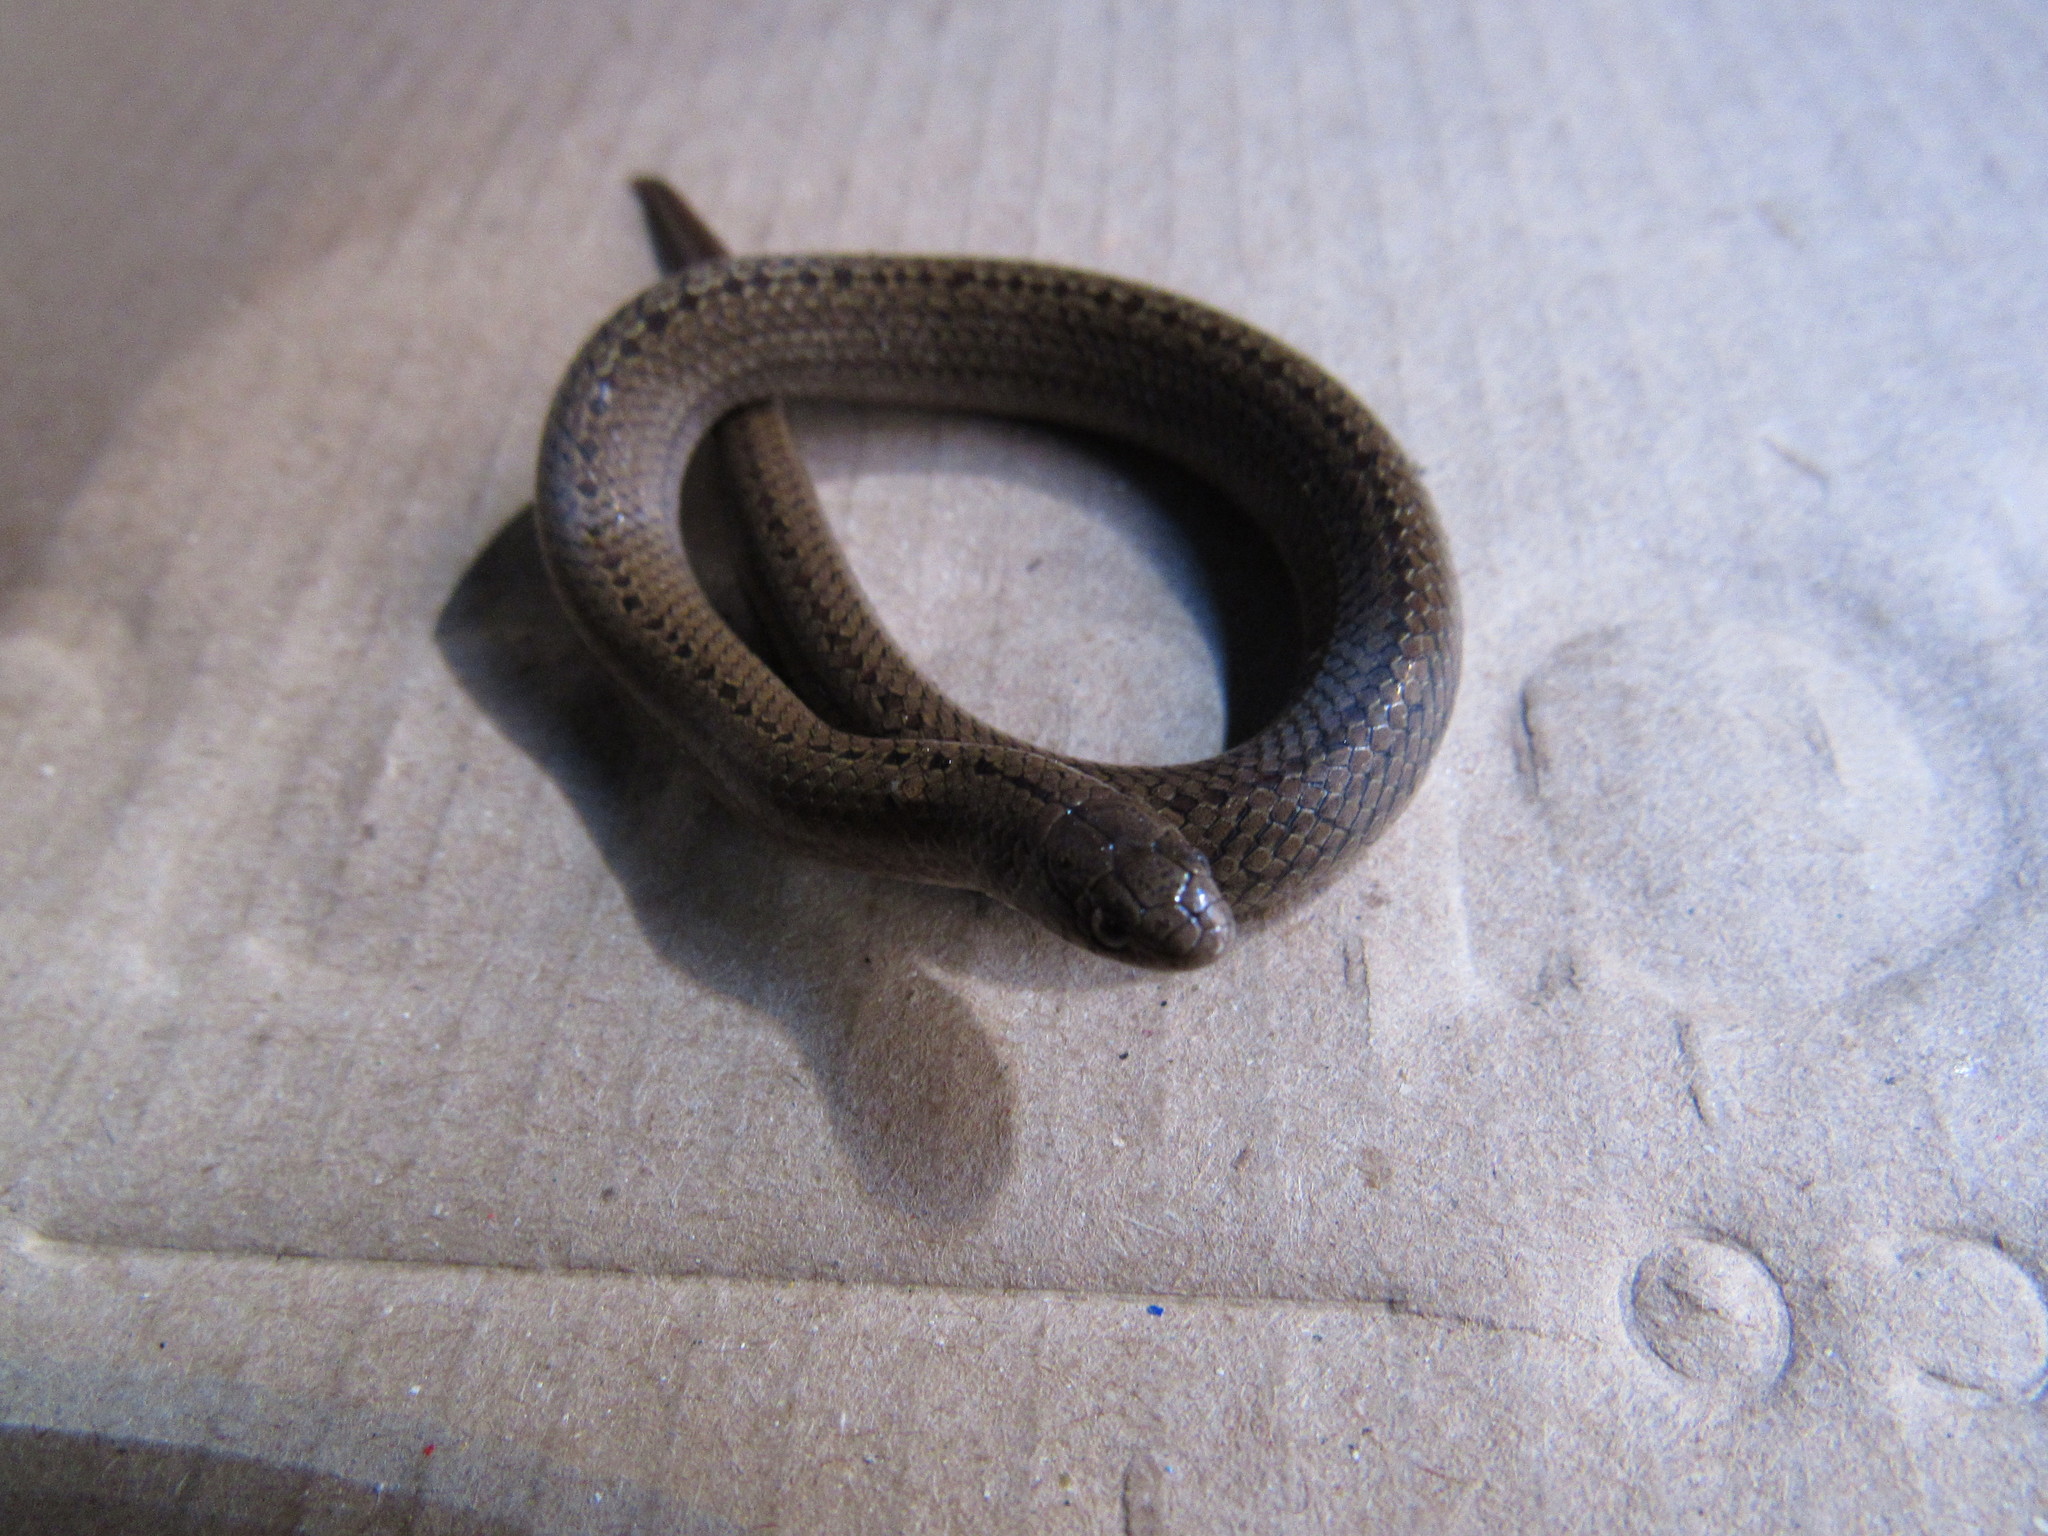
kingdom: Animalia
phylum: Chordata
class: Squamata
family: Colubridae
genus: Conopsis
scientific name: Conopsis lineata
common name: Lined tolucan earthsnake
